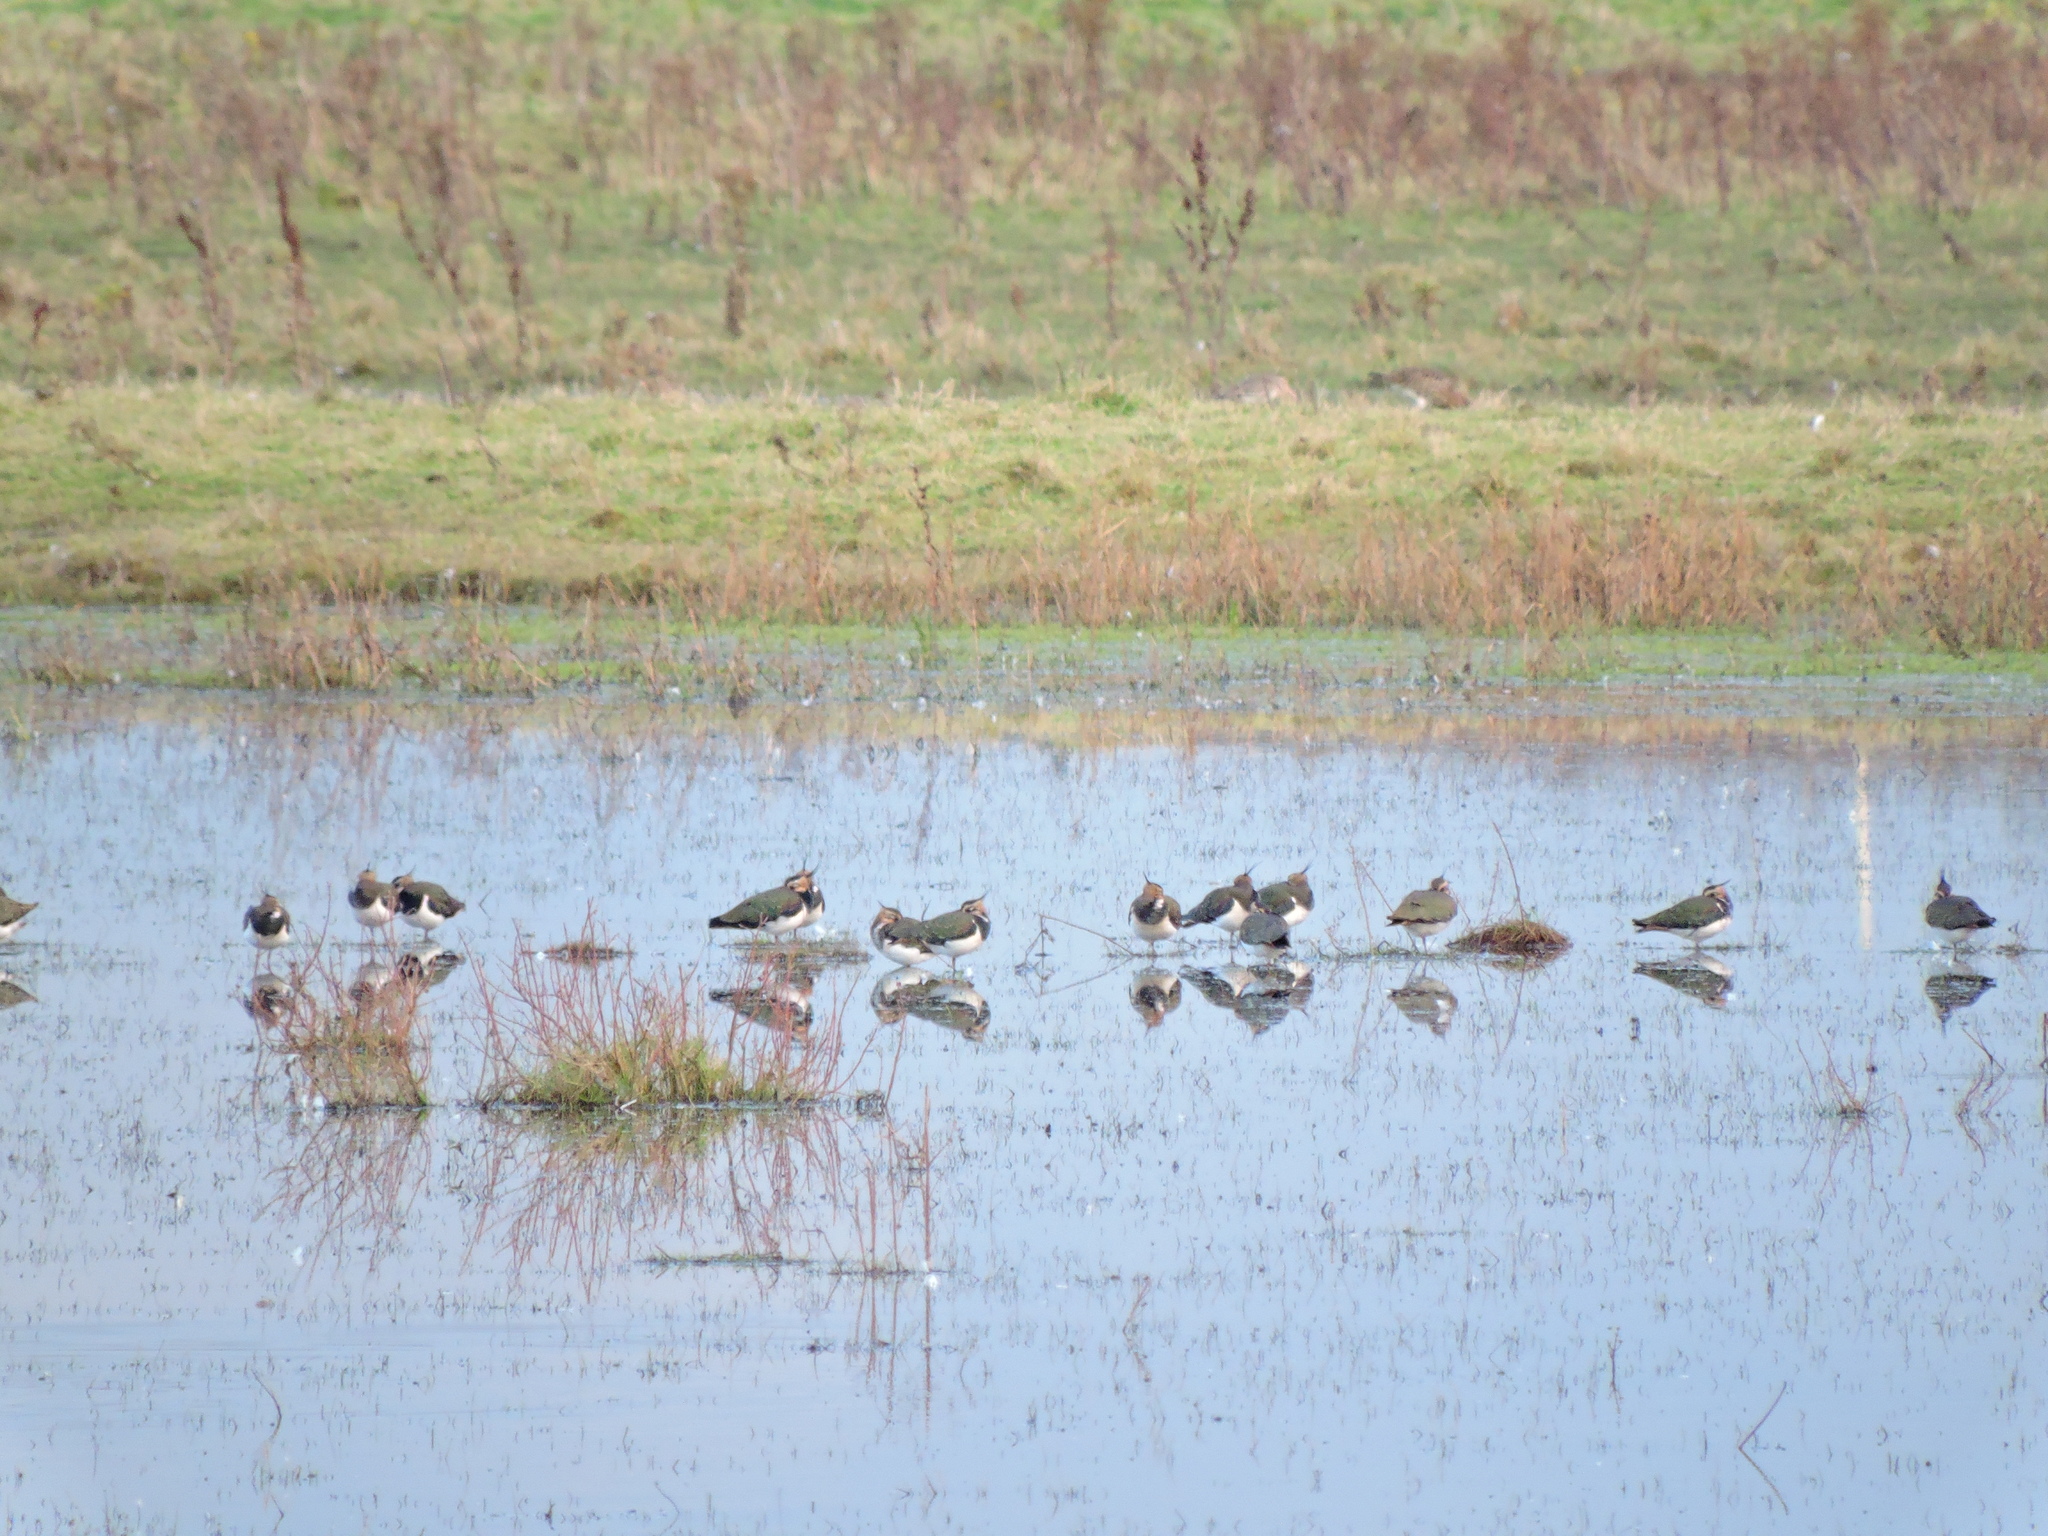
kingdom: Animalia
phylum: Chordata
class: Aves
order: Charadriiformes
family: Charadriidae
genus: Vanellus
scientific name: Vanellus vanellus
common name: Northern lapwing
